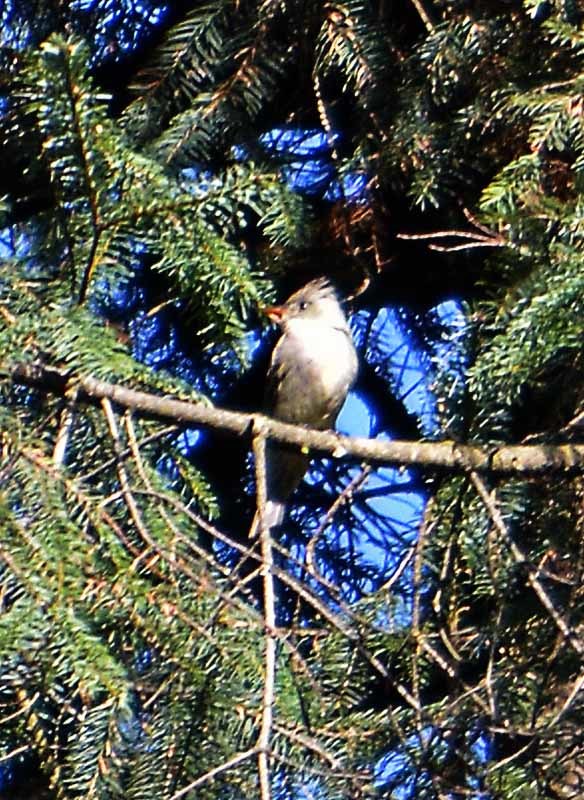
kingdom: Animalia
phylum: Chordata
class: Aves
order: Passeriformes
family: Tyrannidae
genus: Contopus
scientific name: Contopus pertinax
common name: Greater pewee
